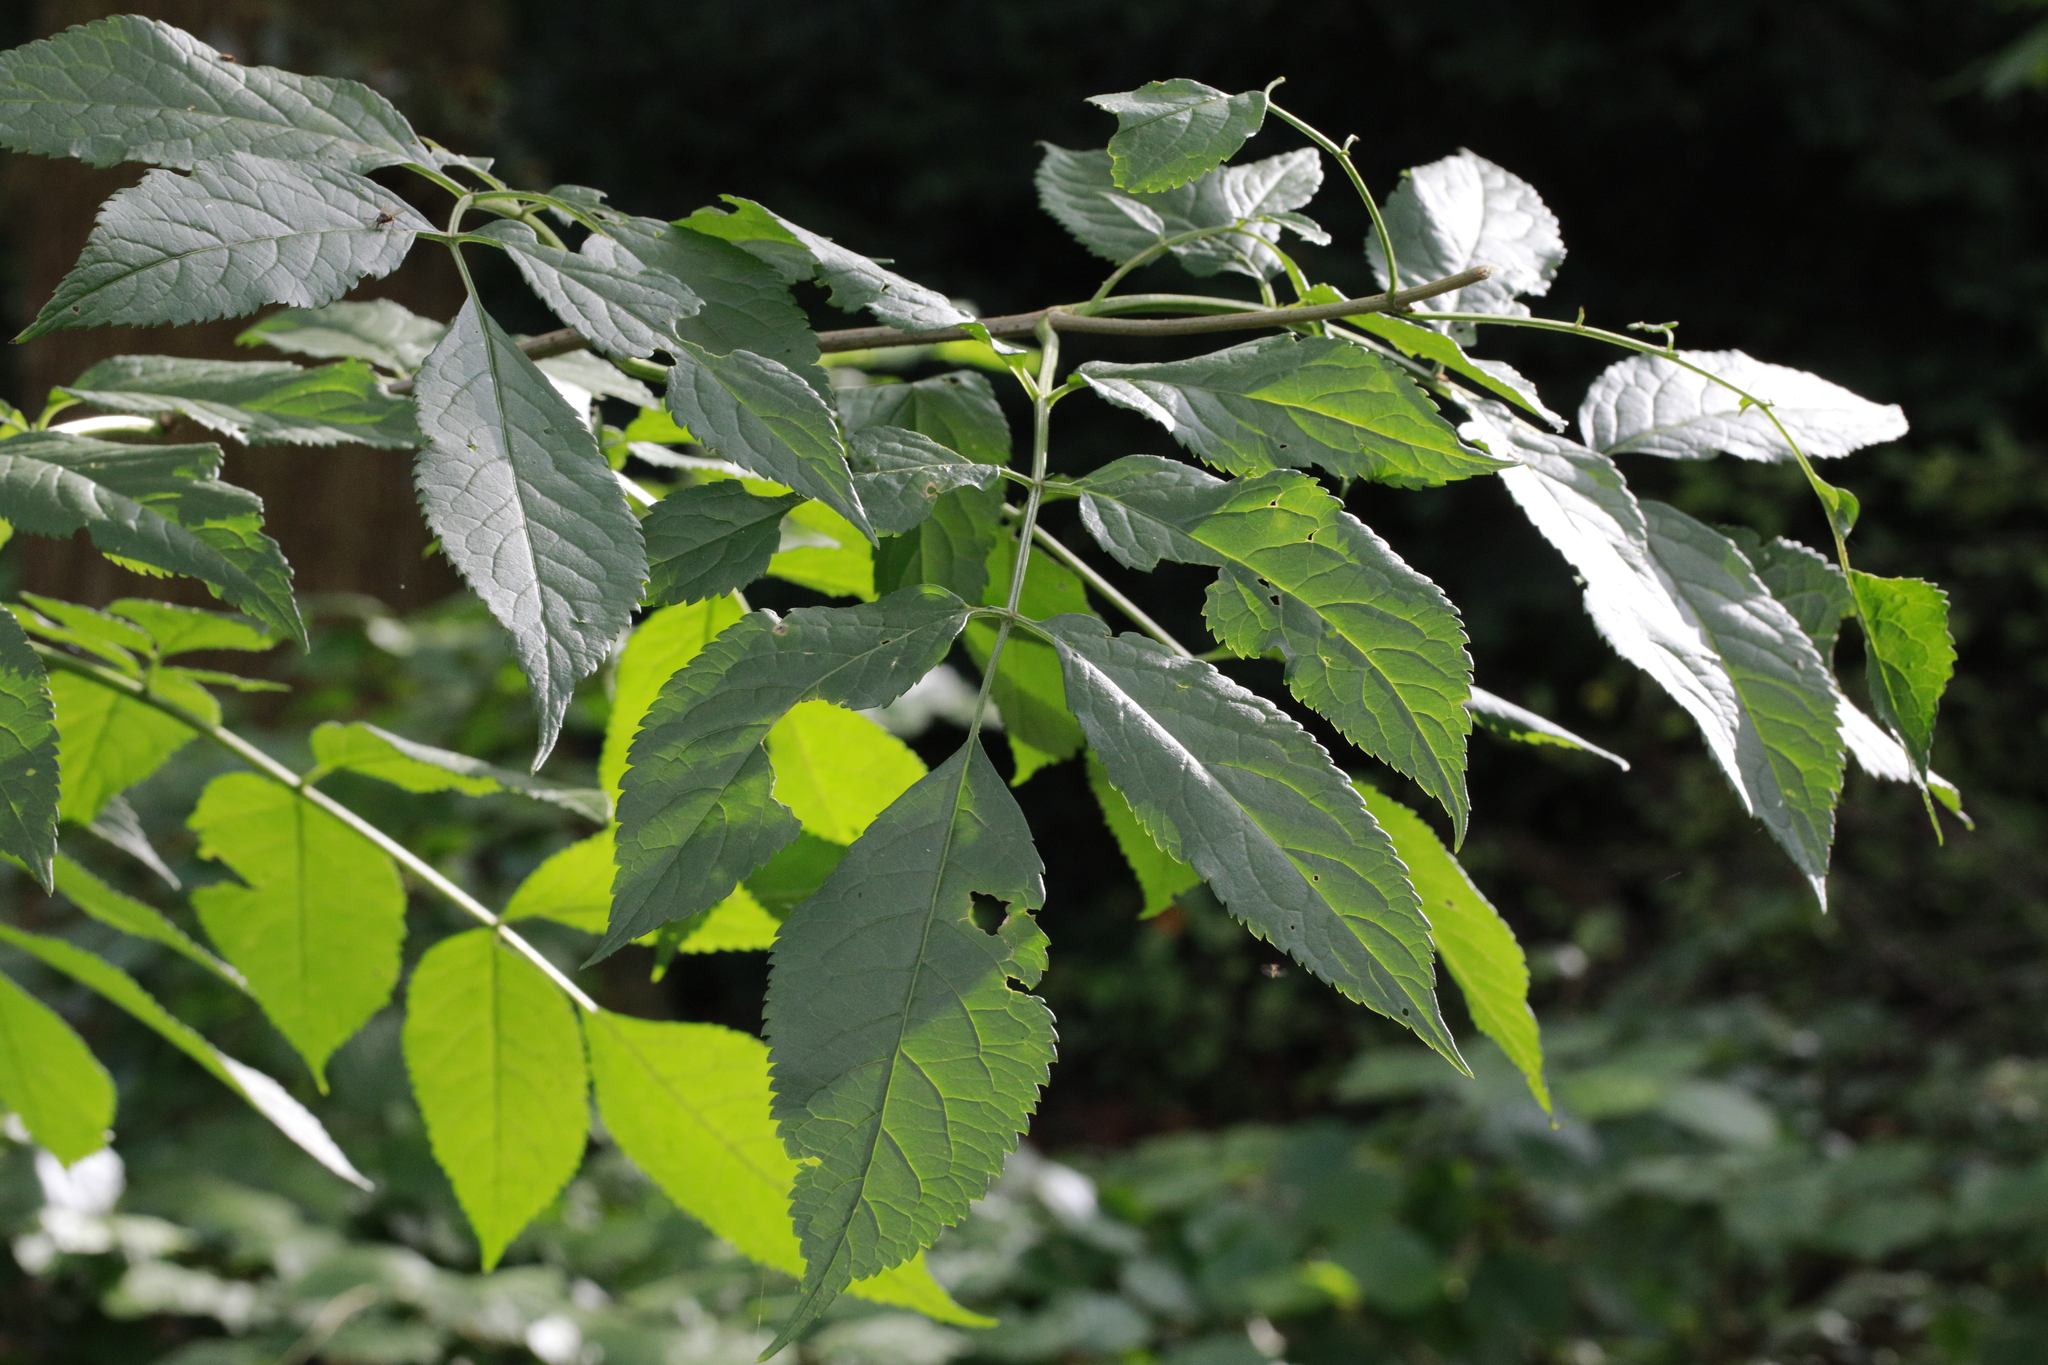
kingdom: Plantae
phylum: Tracheophyta
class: Magnoliopsida
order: Dipsacales
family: Viburnaceae
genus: Sambucus
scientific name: Sambucus nigra
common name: Elder
